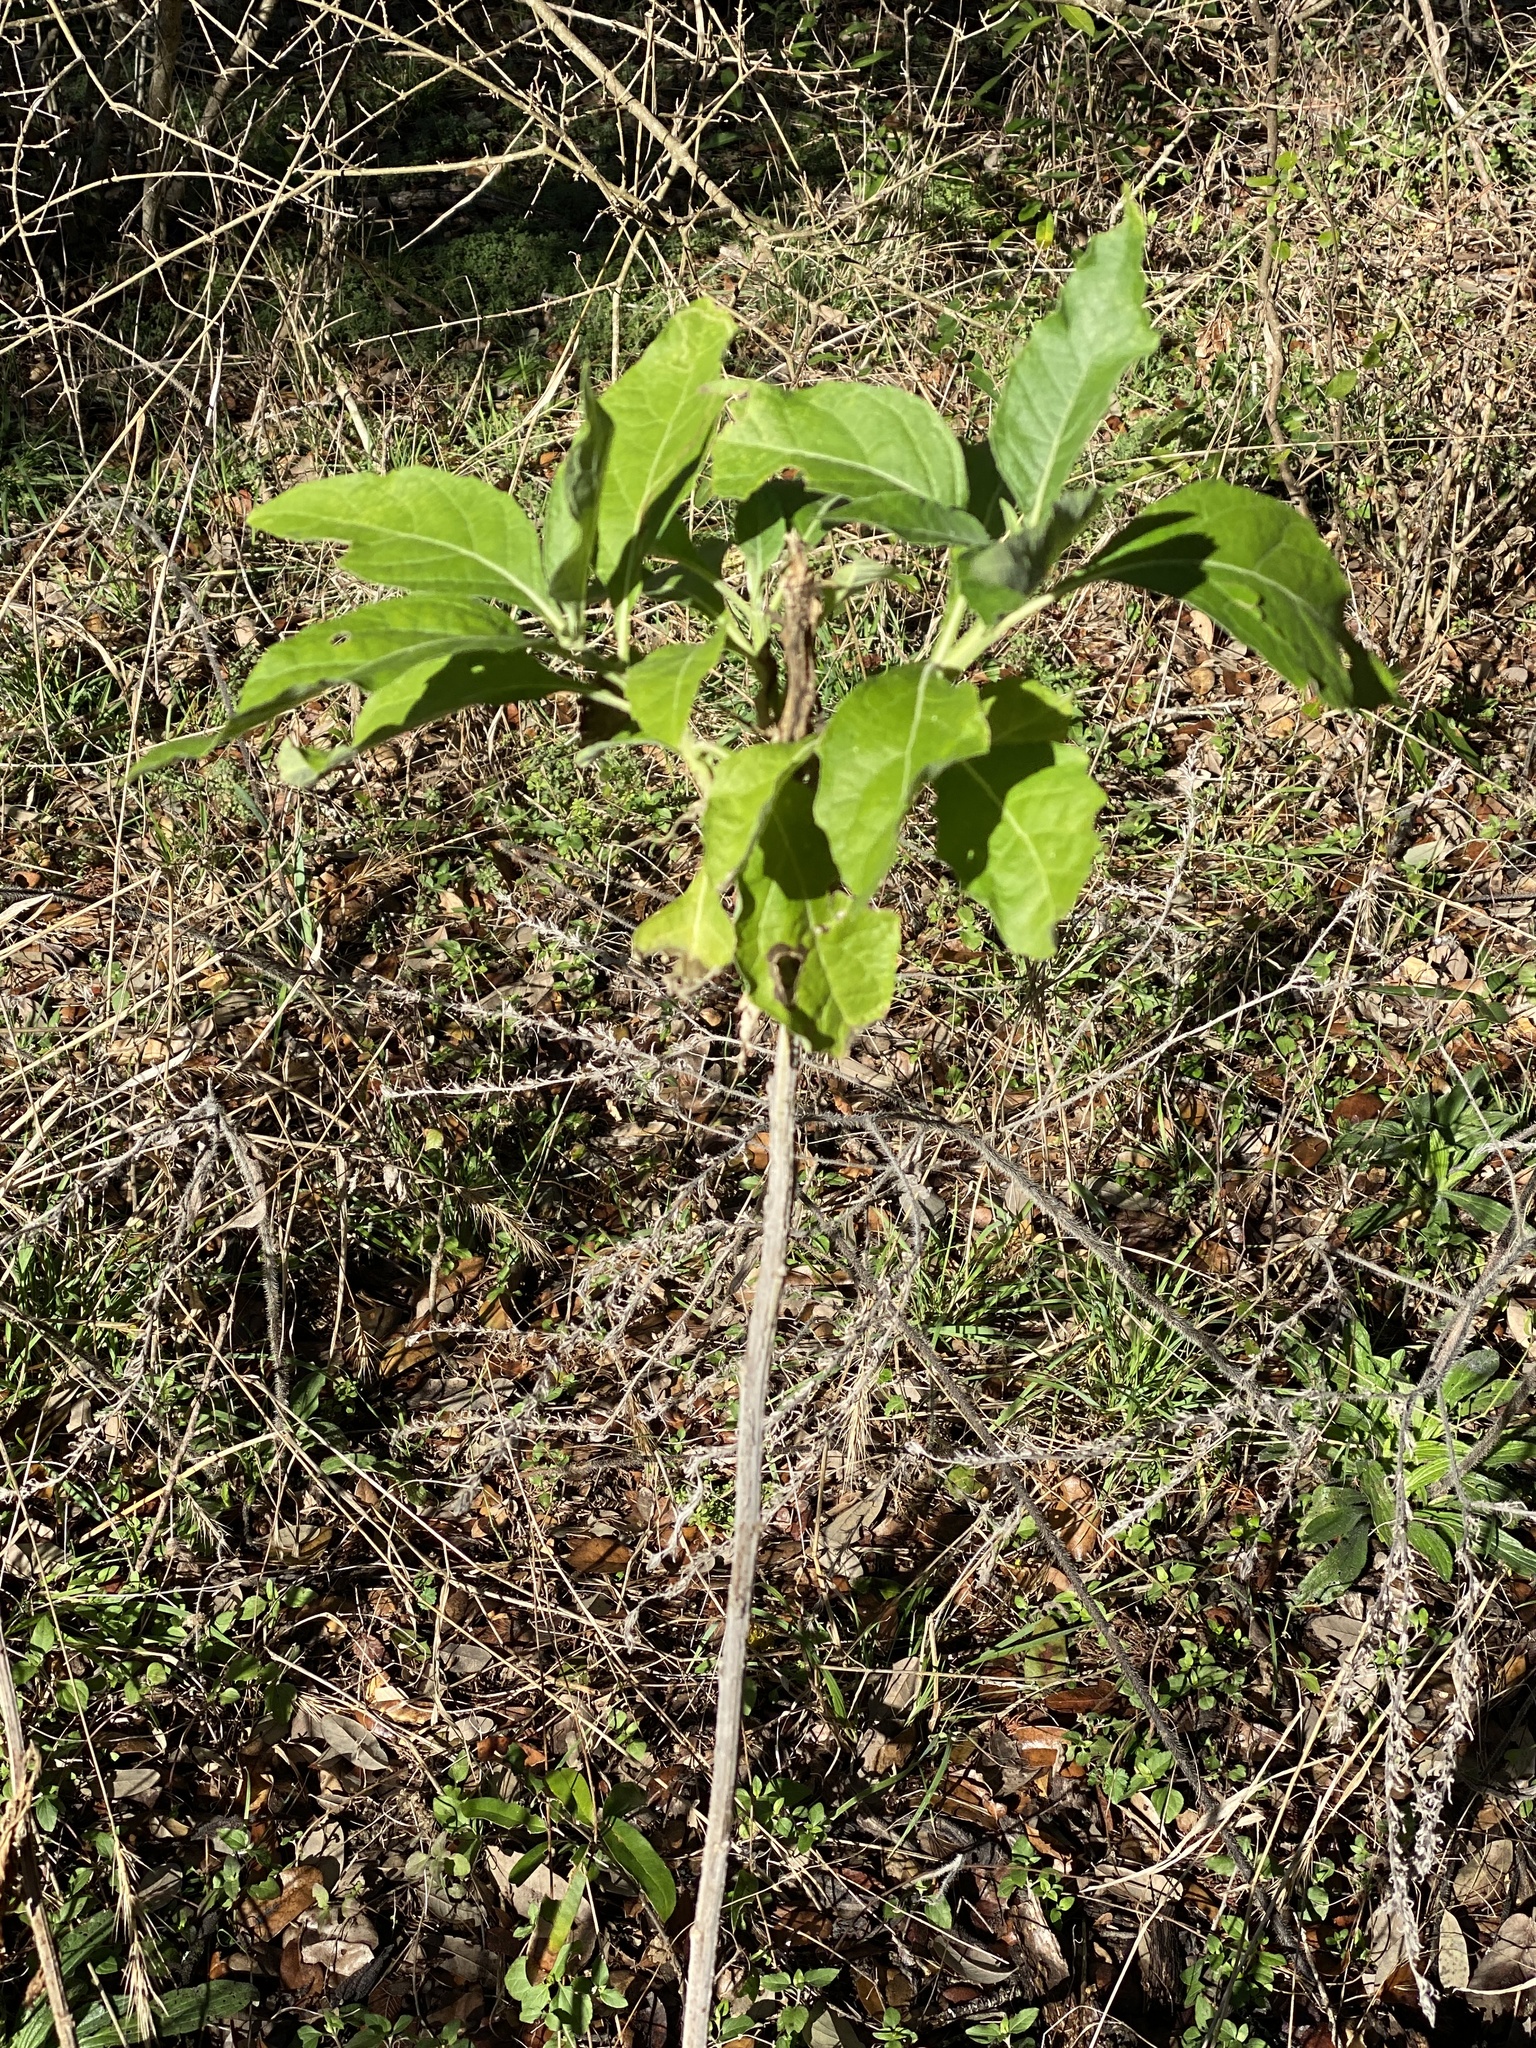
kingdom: Plantae
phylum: Tracheophyta
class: Magnoliopsida
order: Asterales
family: Asteraceae
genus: Verbesina
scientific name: Verbesina virginica
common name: Frostweed
